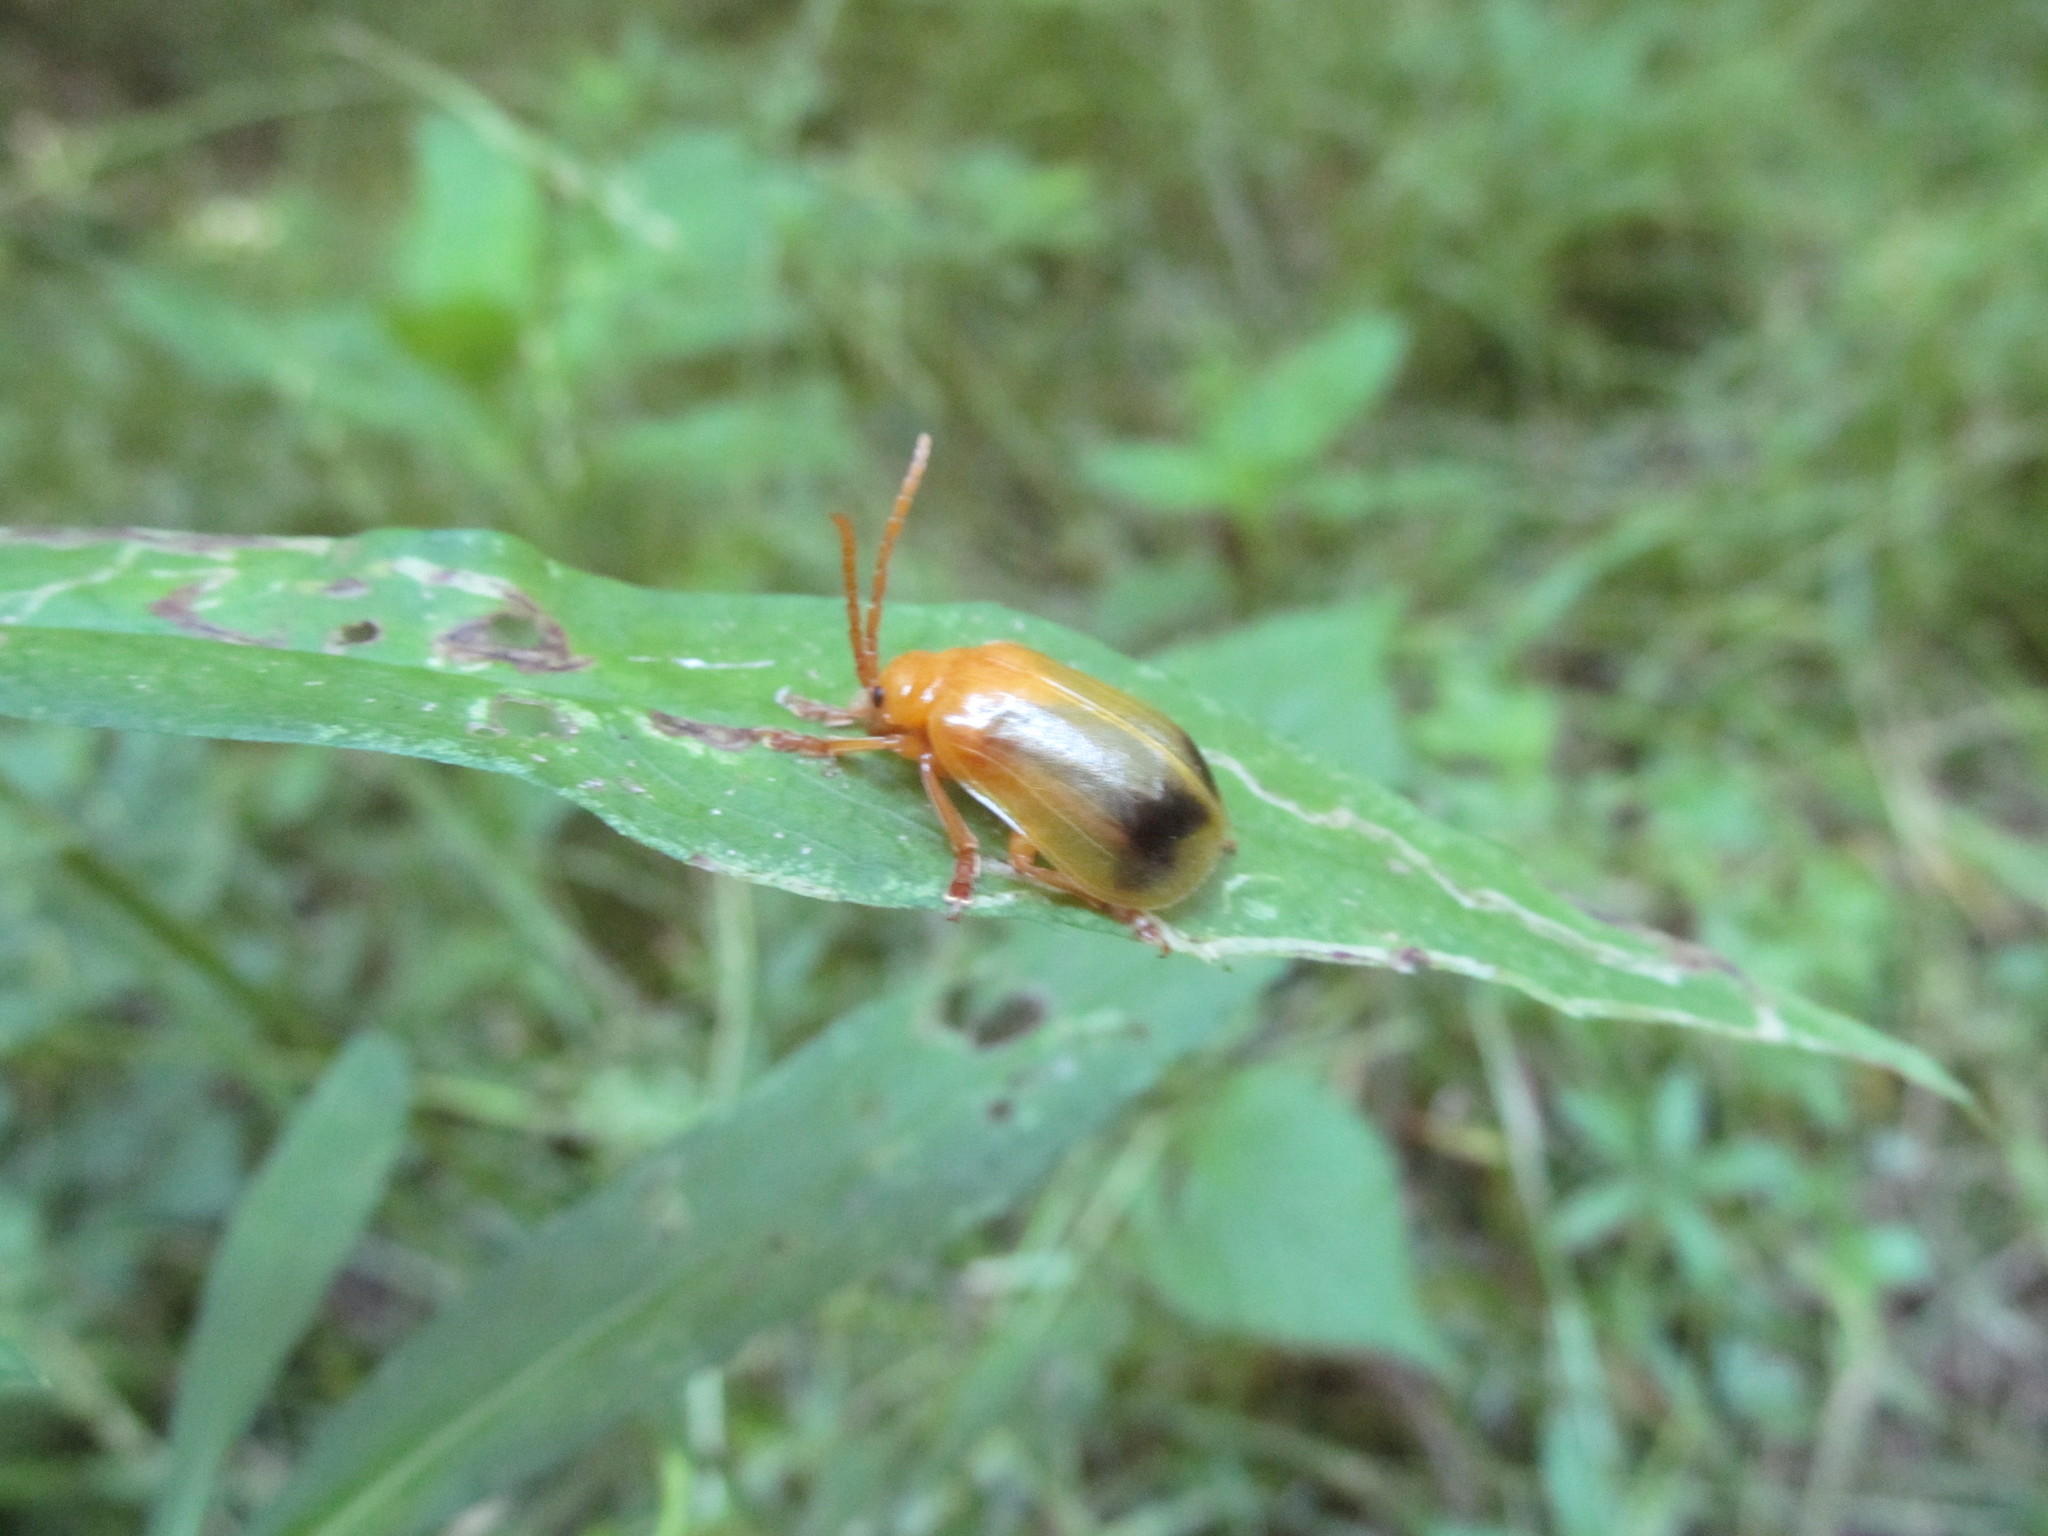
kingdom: Animalia
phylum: Arthropoda
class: Insecta
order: Coleoptera
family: Chrysomelidae
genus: Monocesta
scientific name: Monocesta coryli
